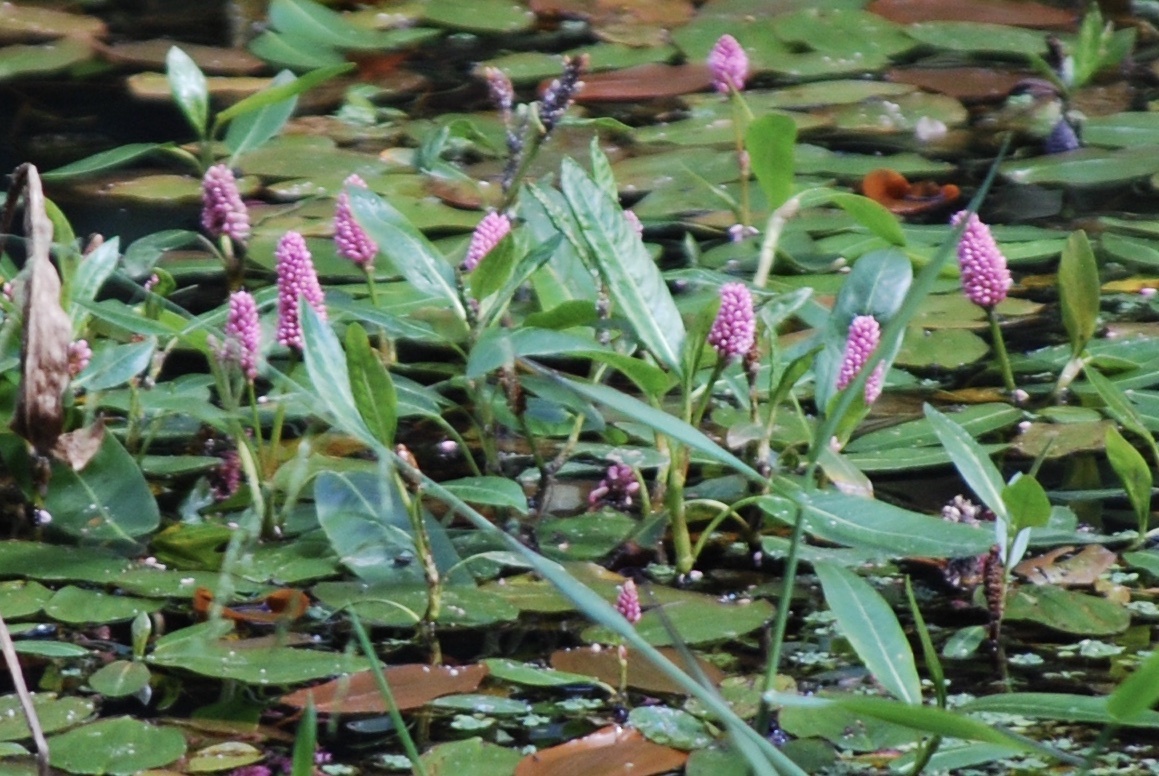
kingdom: Plantae
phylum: Tracheophyta
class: Magnoliopsida
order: Caryophyllales
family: Polygonaceae
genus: Persicaria
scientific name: Persicaria amphibia
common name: Amphibious bistort
